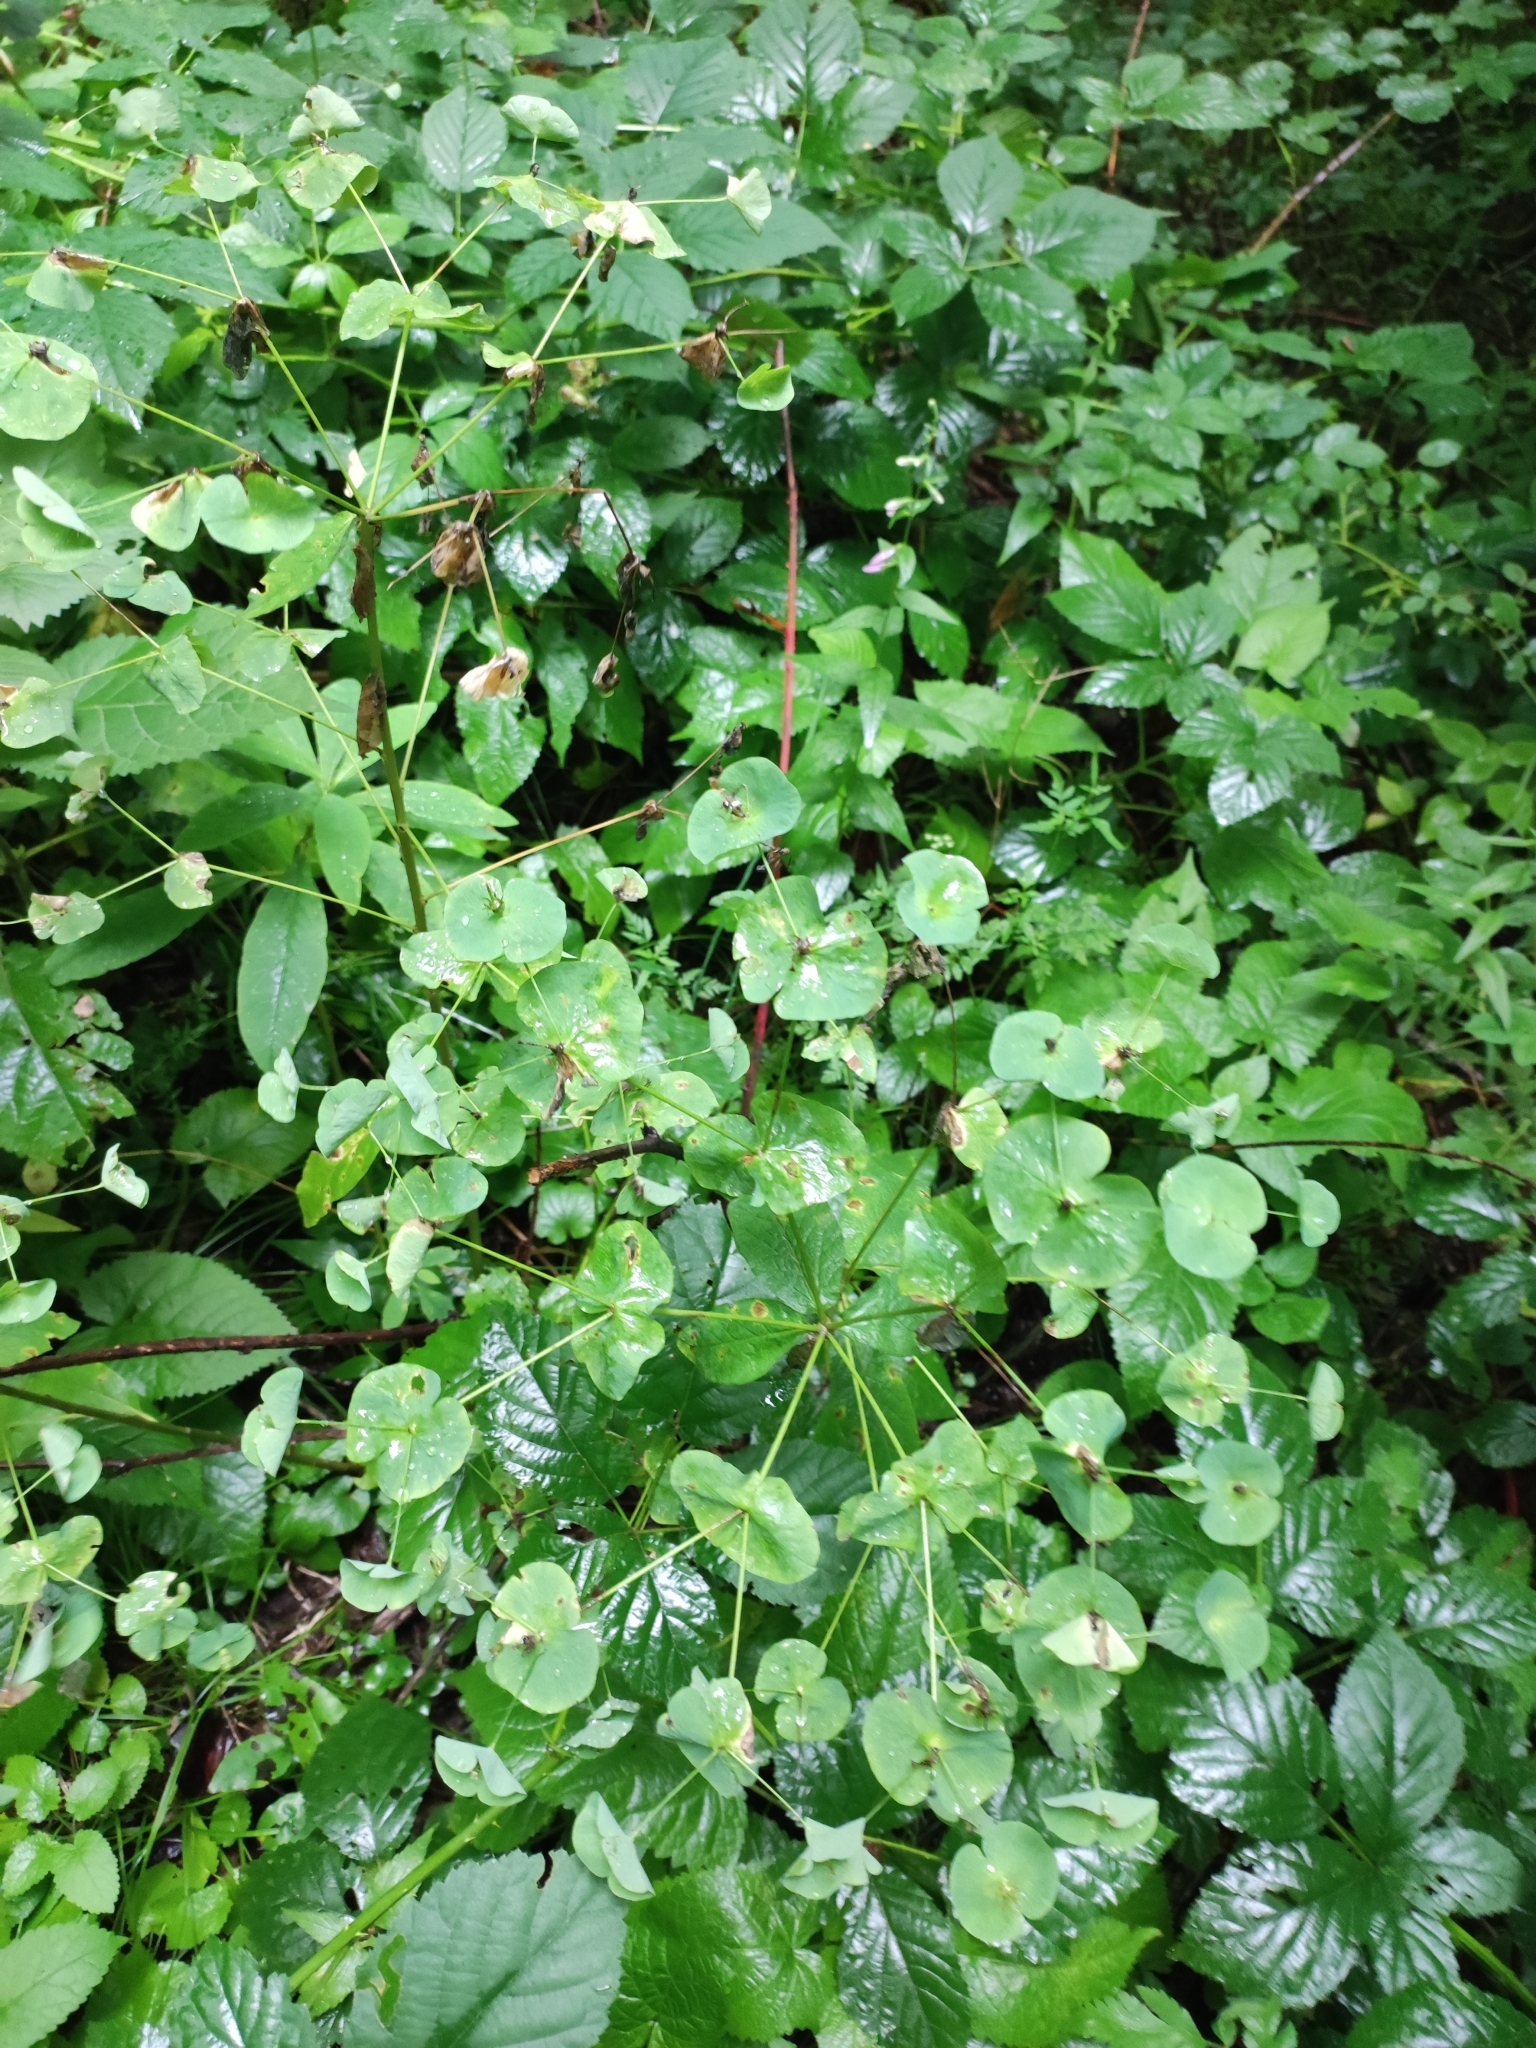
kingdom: Plantae
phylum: Tracheophyta
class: Magnoliopsida
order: Malpighiales
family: Euphorbiaceae
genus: Euphorbia
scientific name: Euphorbia amygdaloides
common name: Wood spurge
